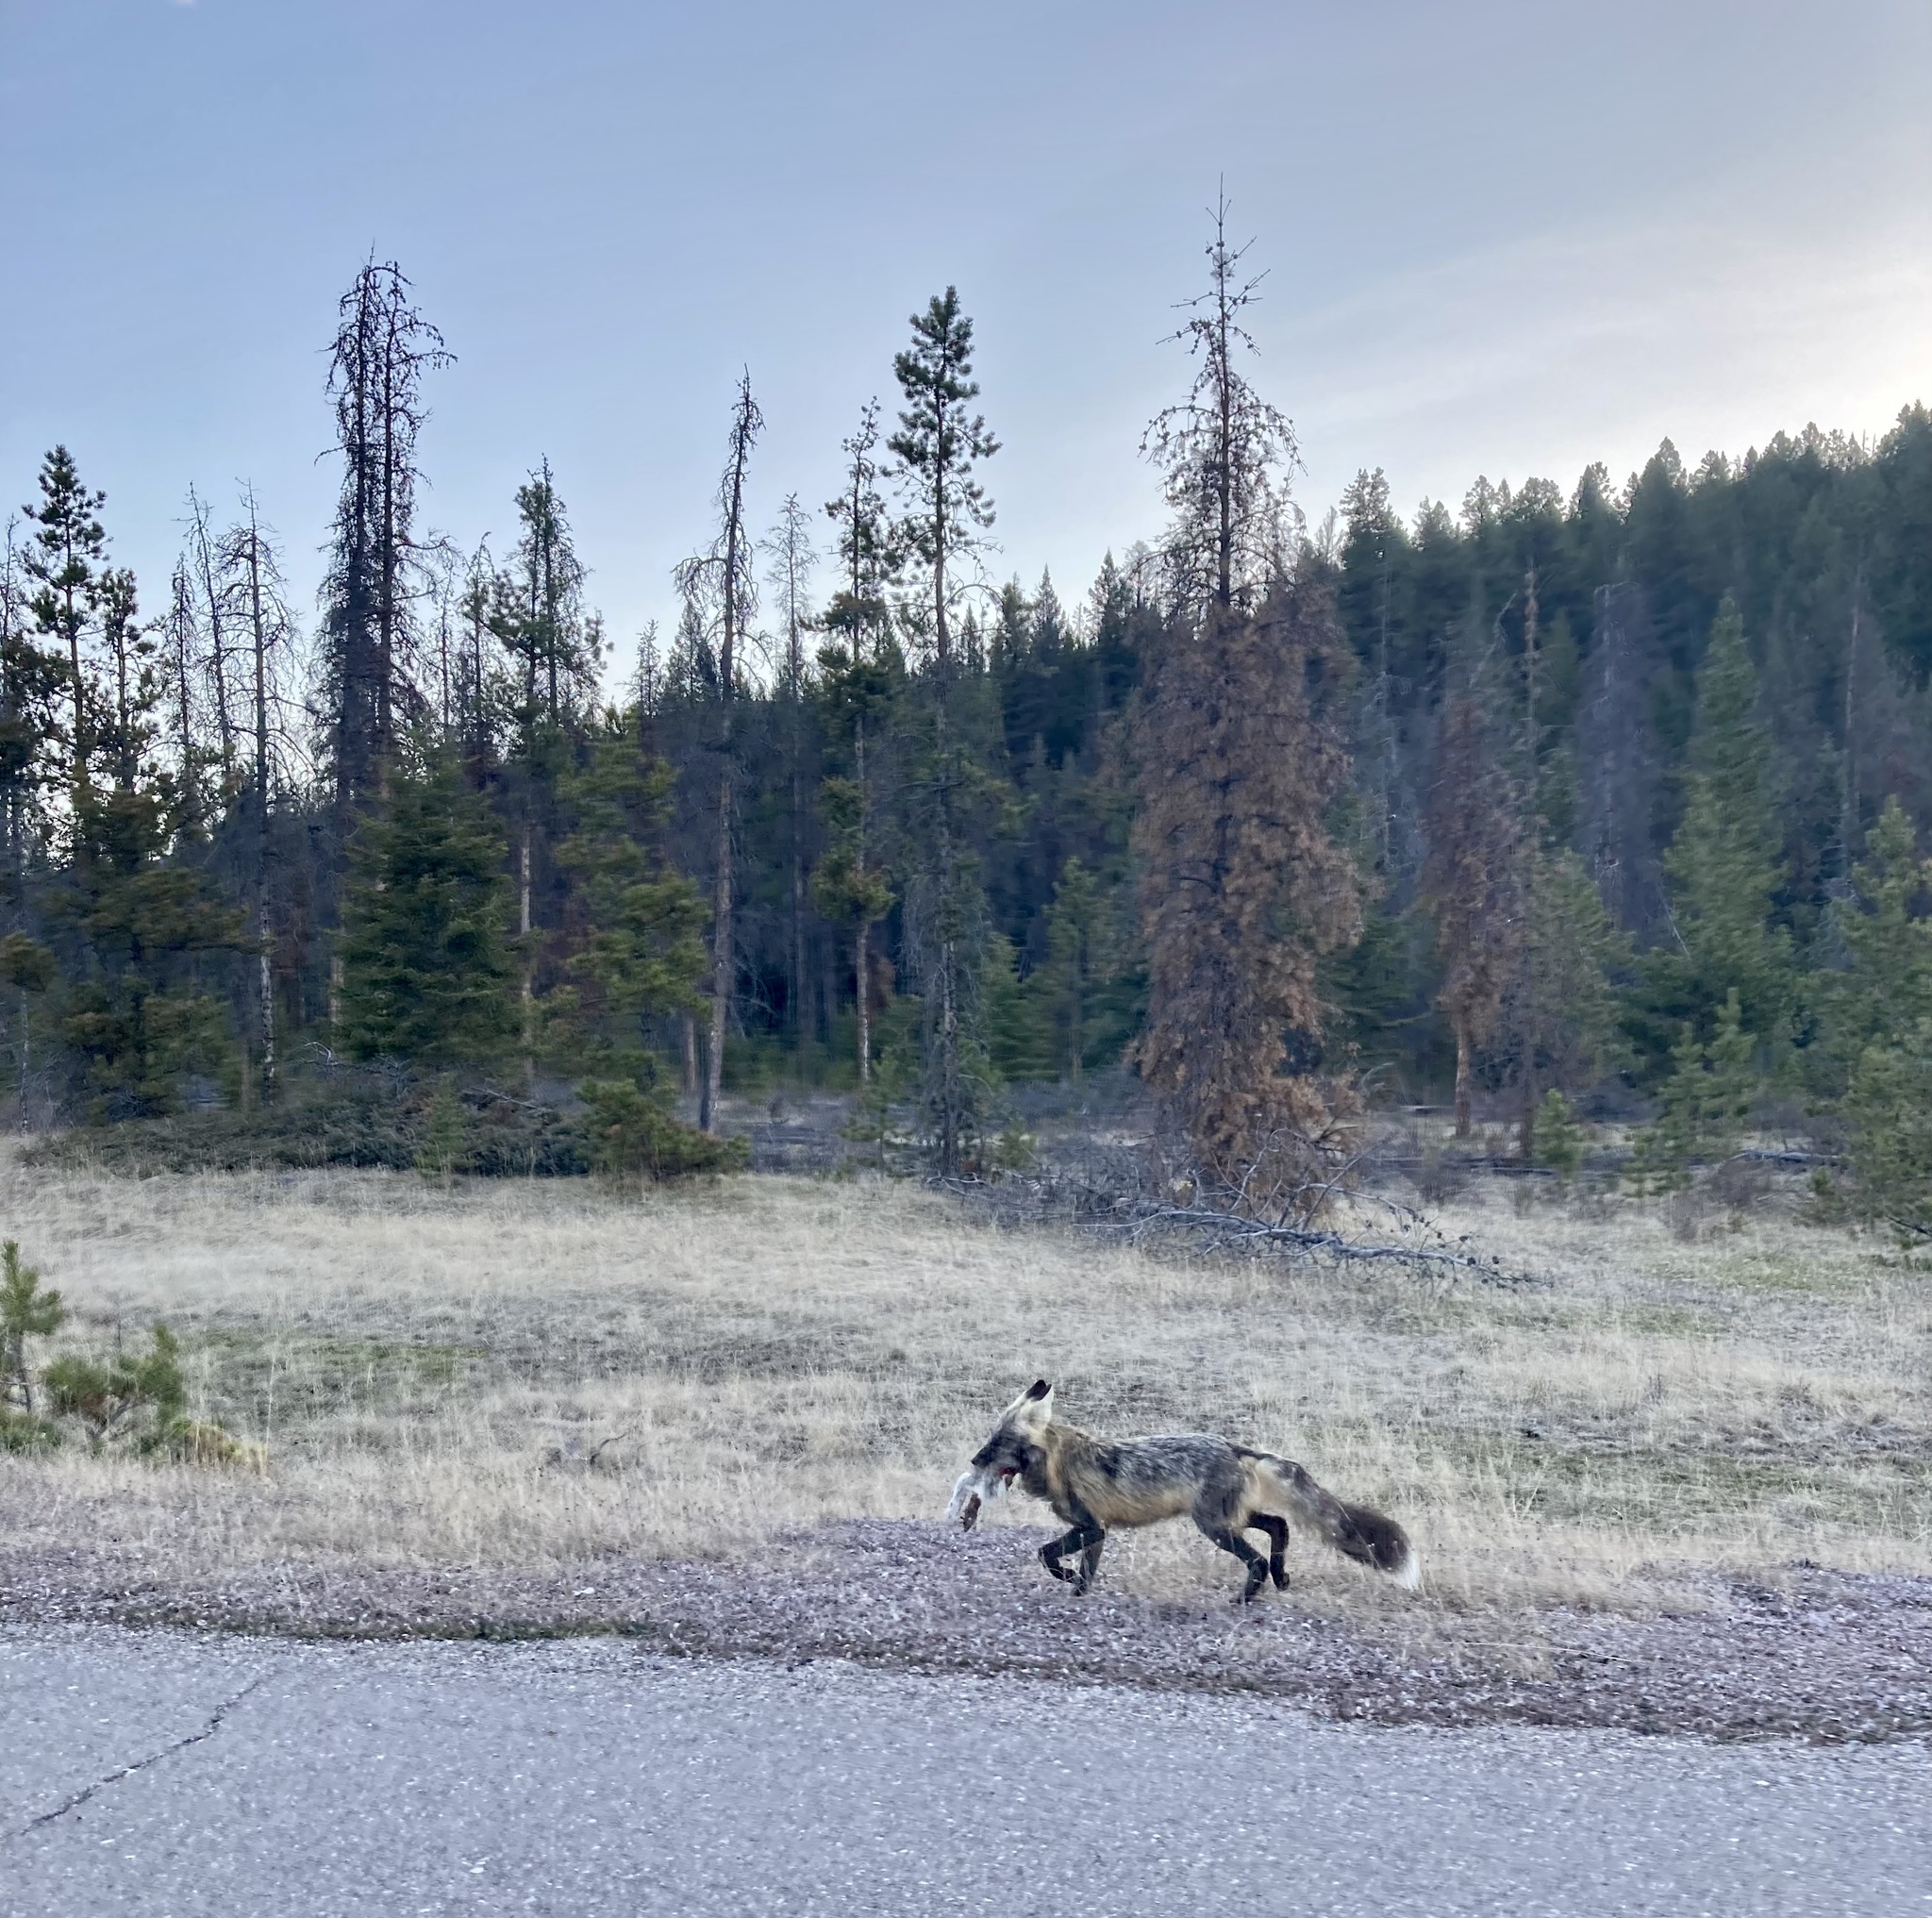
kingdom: Animalia
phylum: Chordata
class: Mammalia
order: Carnivora
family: Canidae
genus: Vulpes
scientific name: Vulpes vulpes
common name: Red fox
